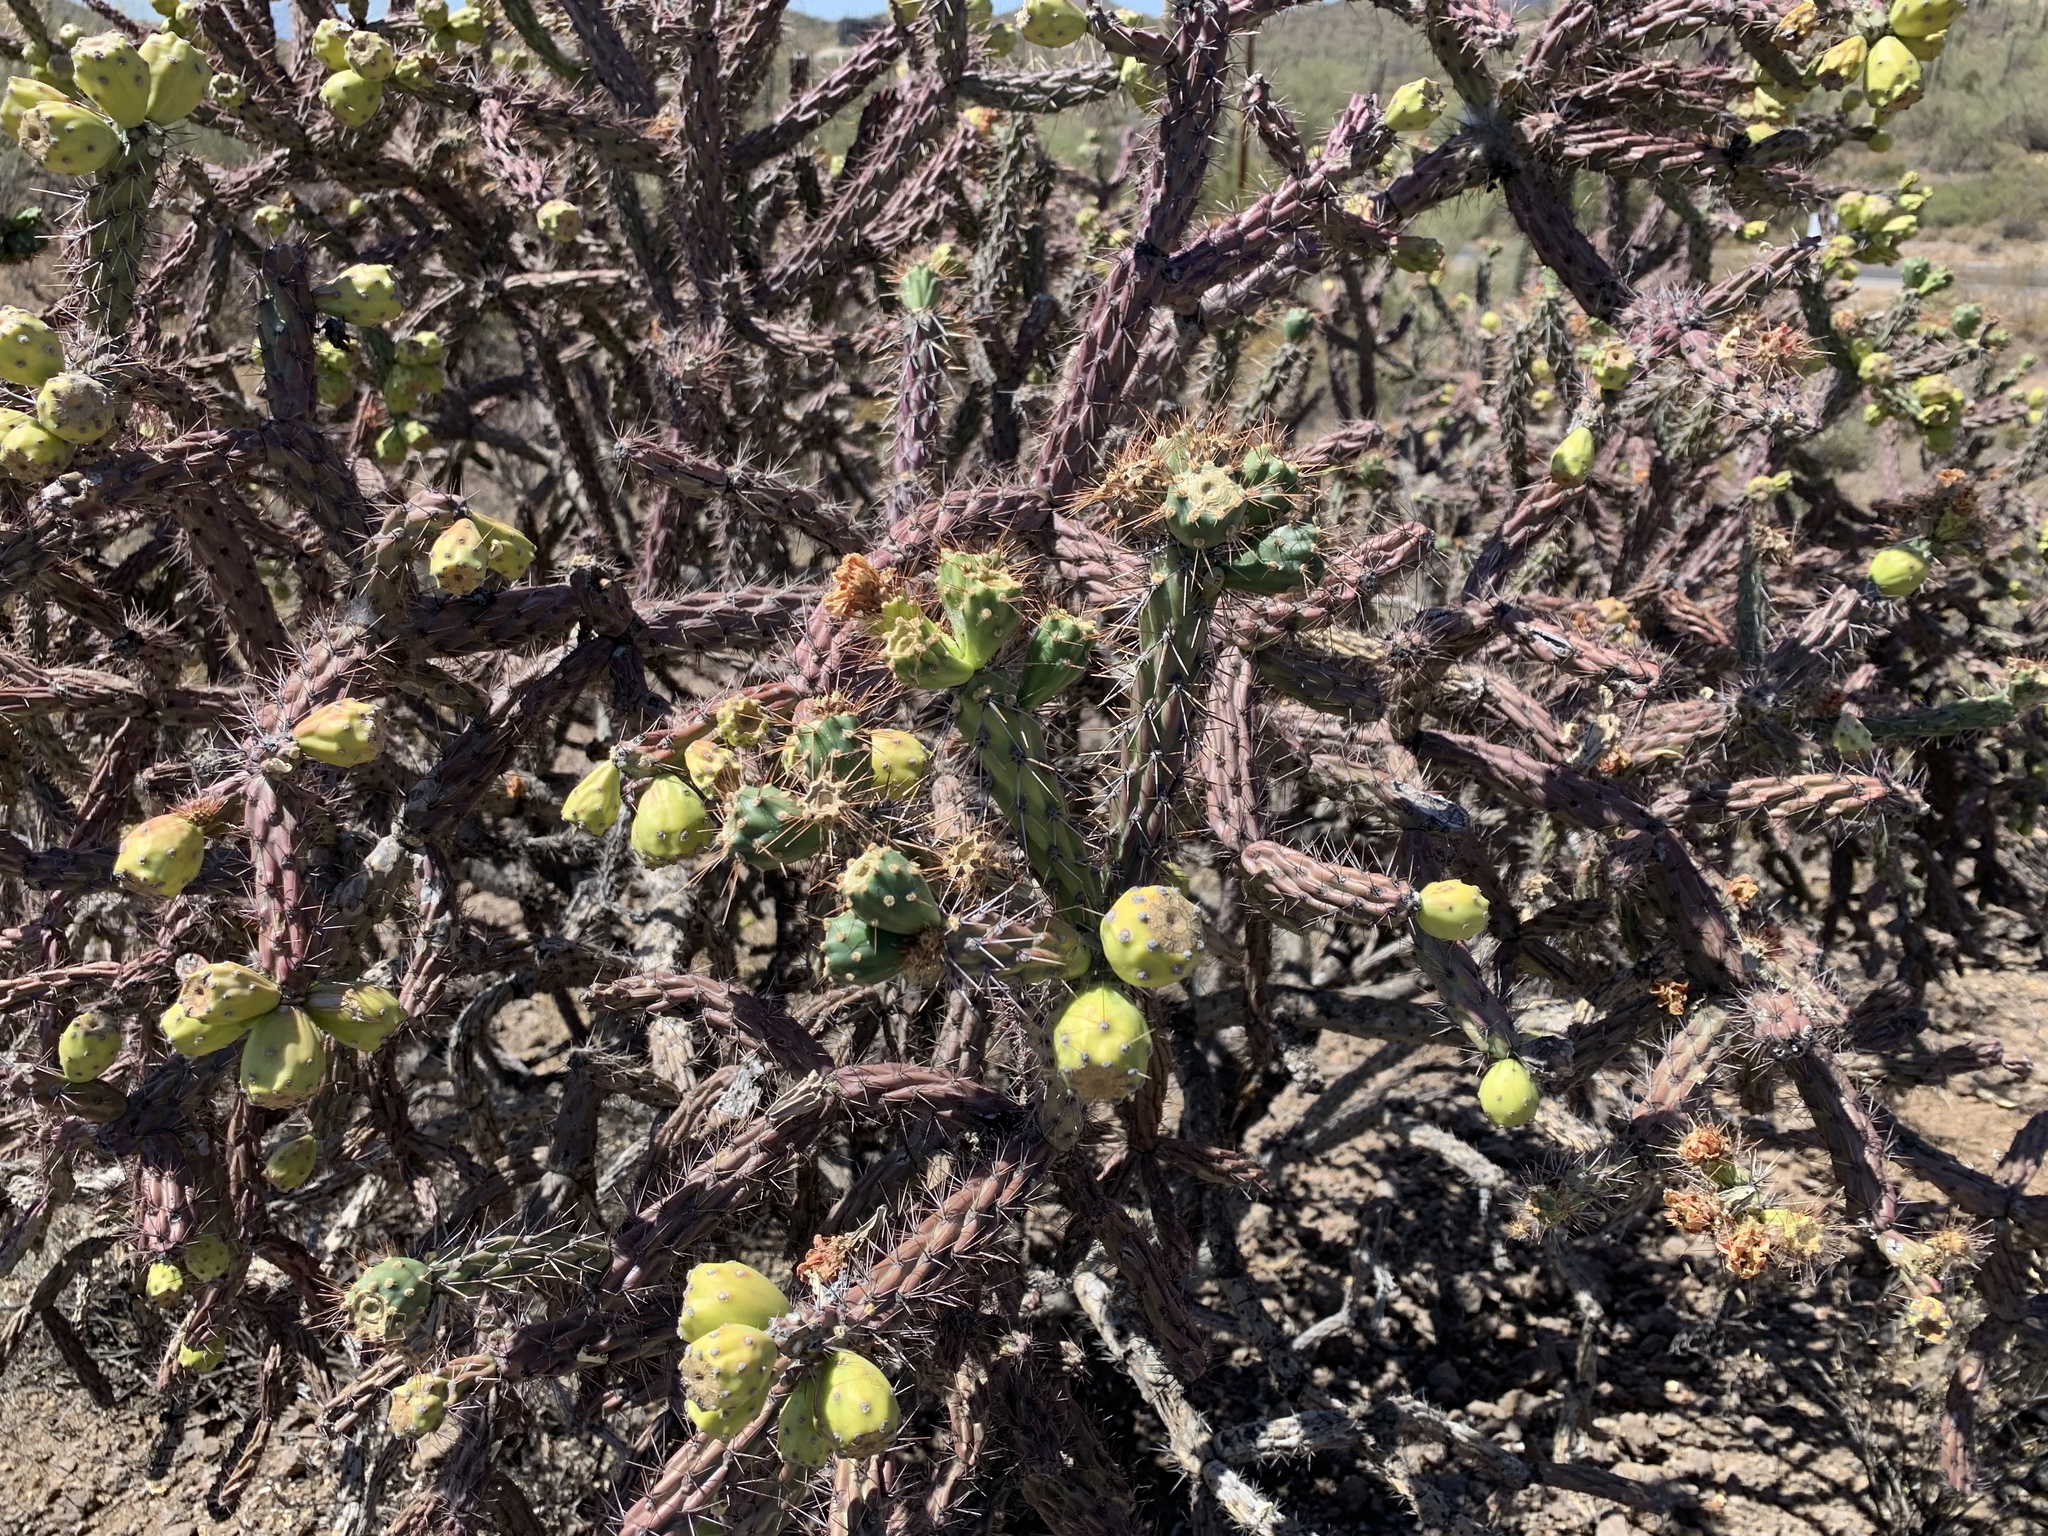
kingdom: Plantae
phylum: Tracheophyta
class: Magnoliopsida
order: Caryophyllales
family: Cactaceae
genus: Cylindropuntia
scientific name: Cylindropuntia thurberi
